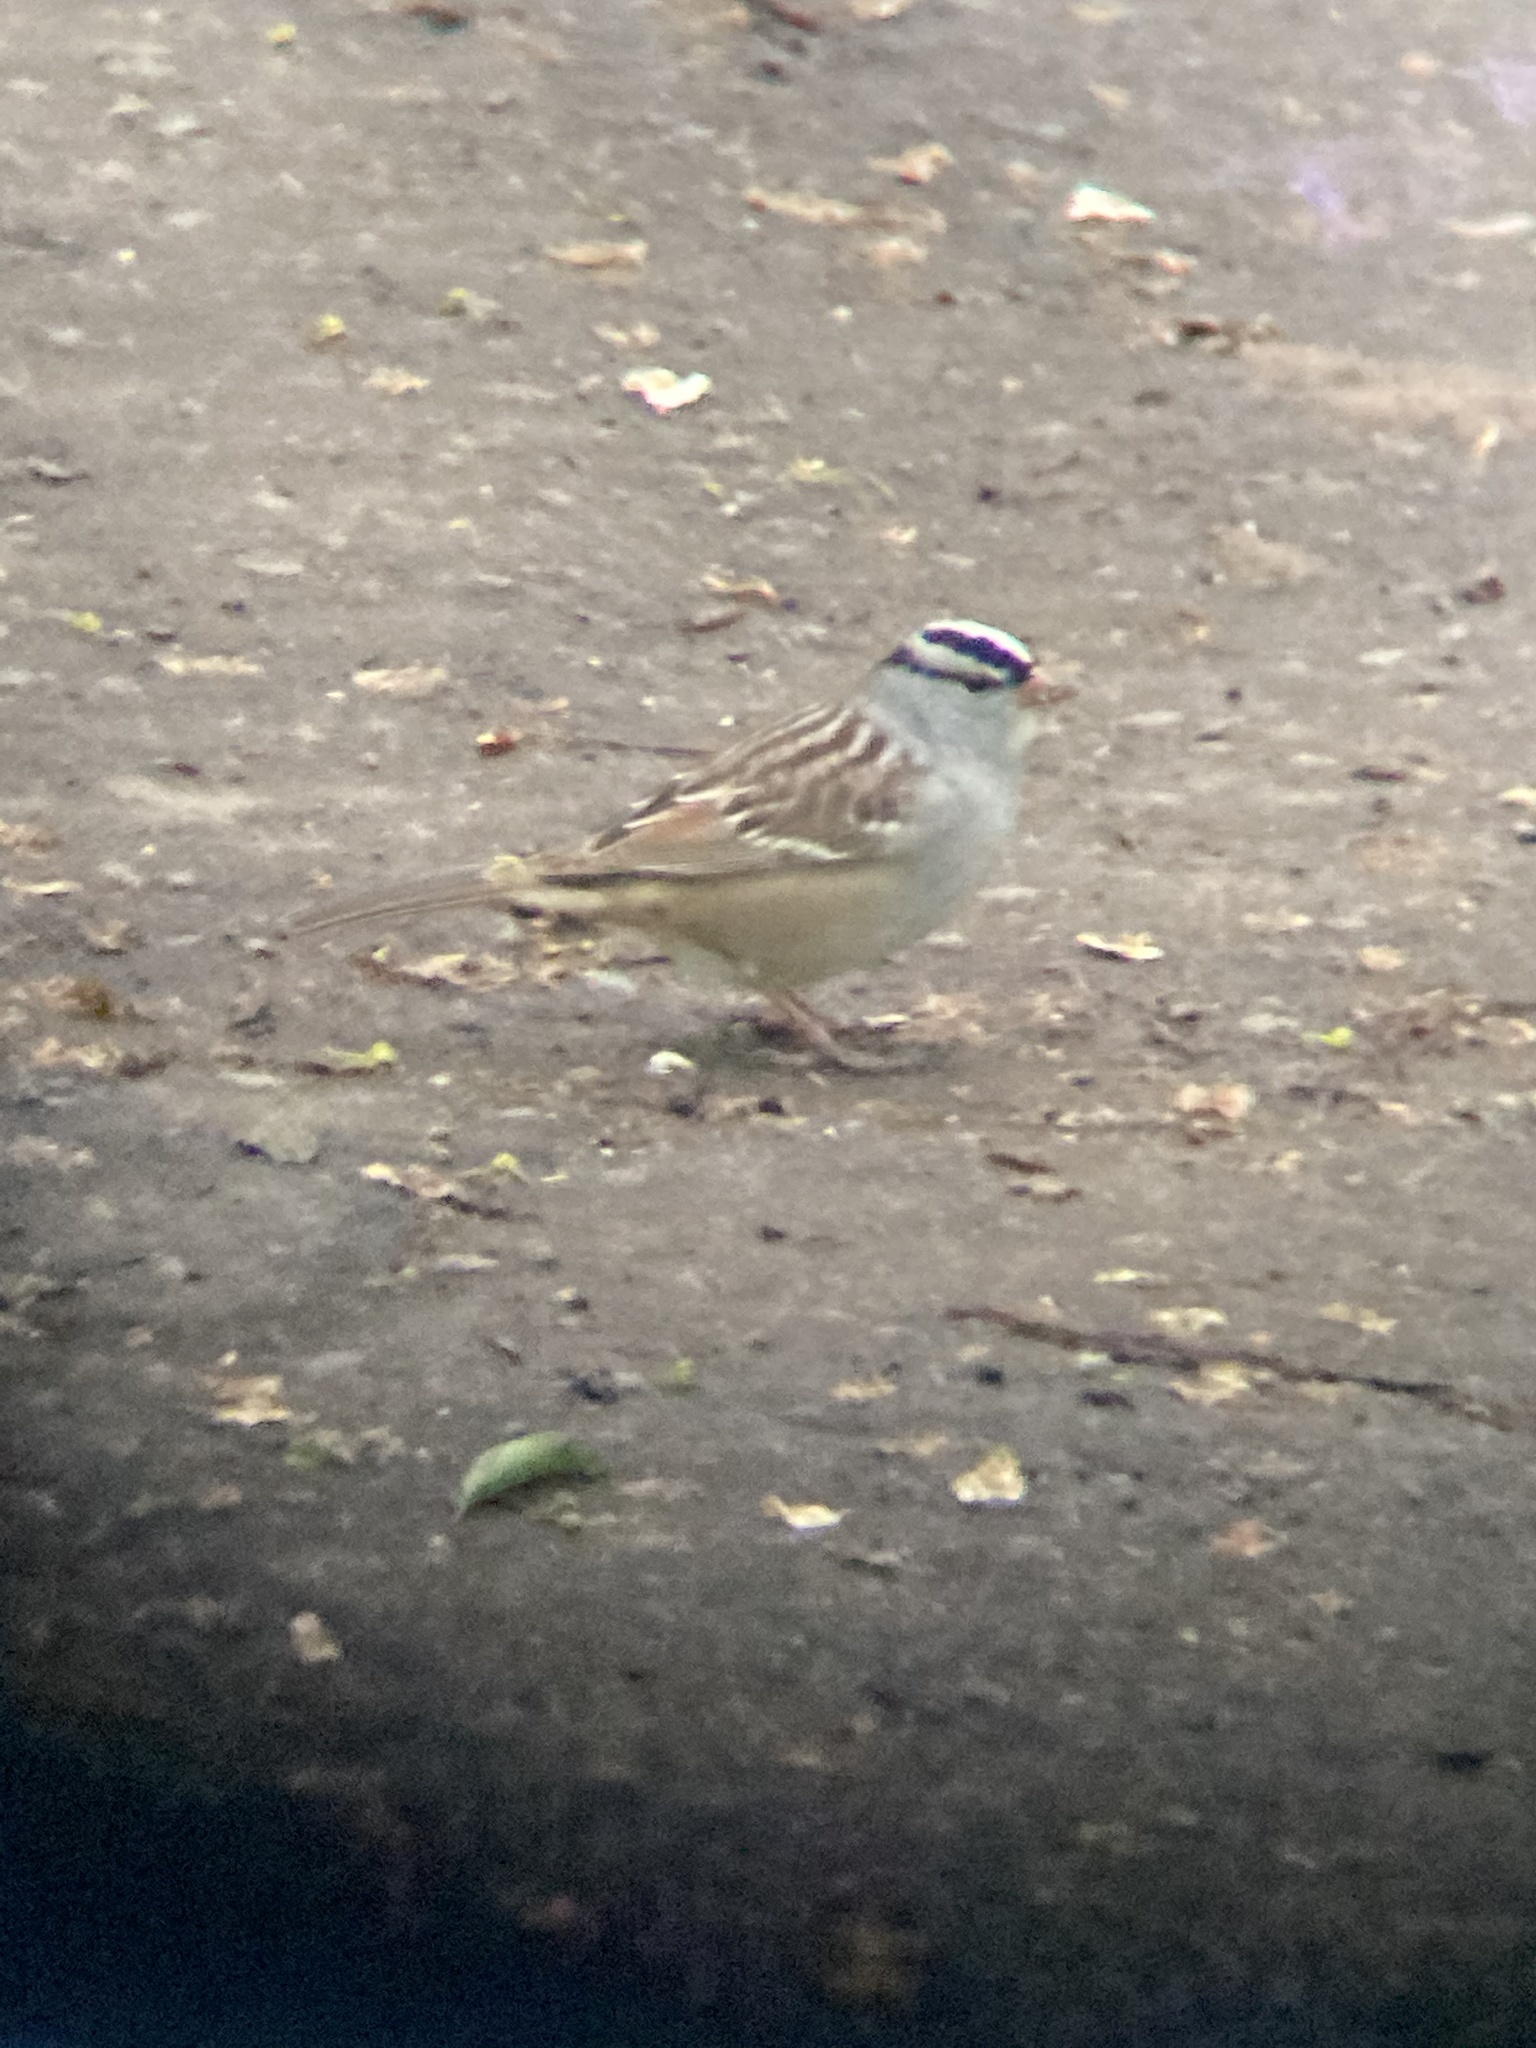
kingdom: Animalia
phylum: Chordata
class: Aves
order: Passeriformes
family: Passerellidae
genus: Zonotrichia
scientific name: Zonotrichia leucophrys
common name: White-crowned sparrow
